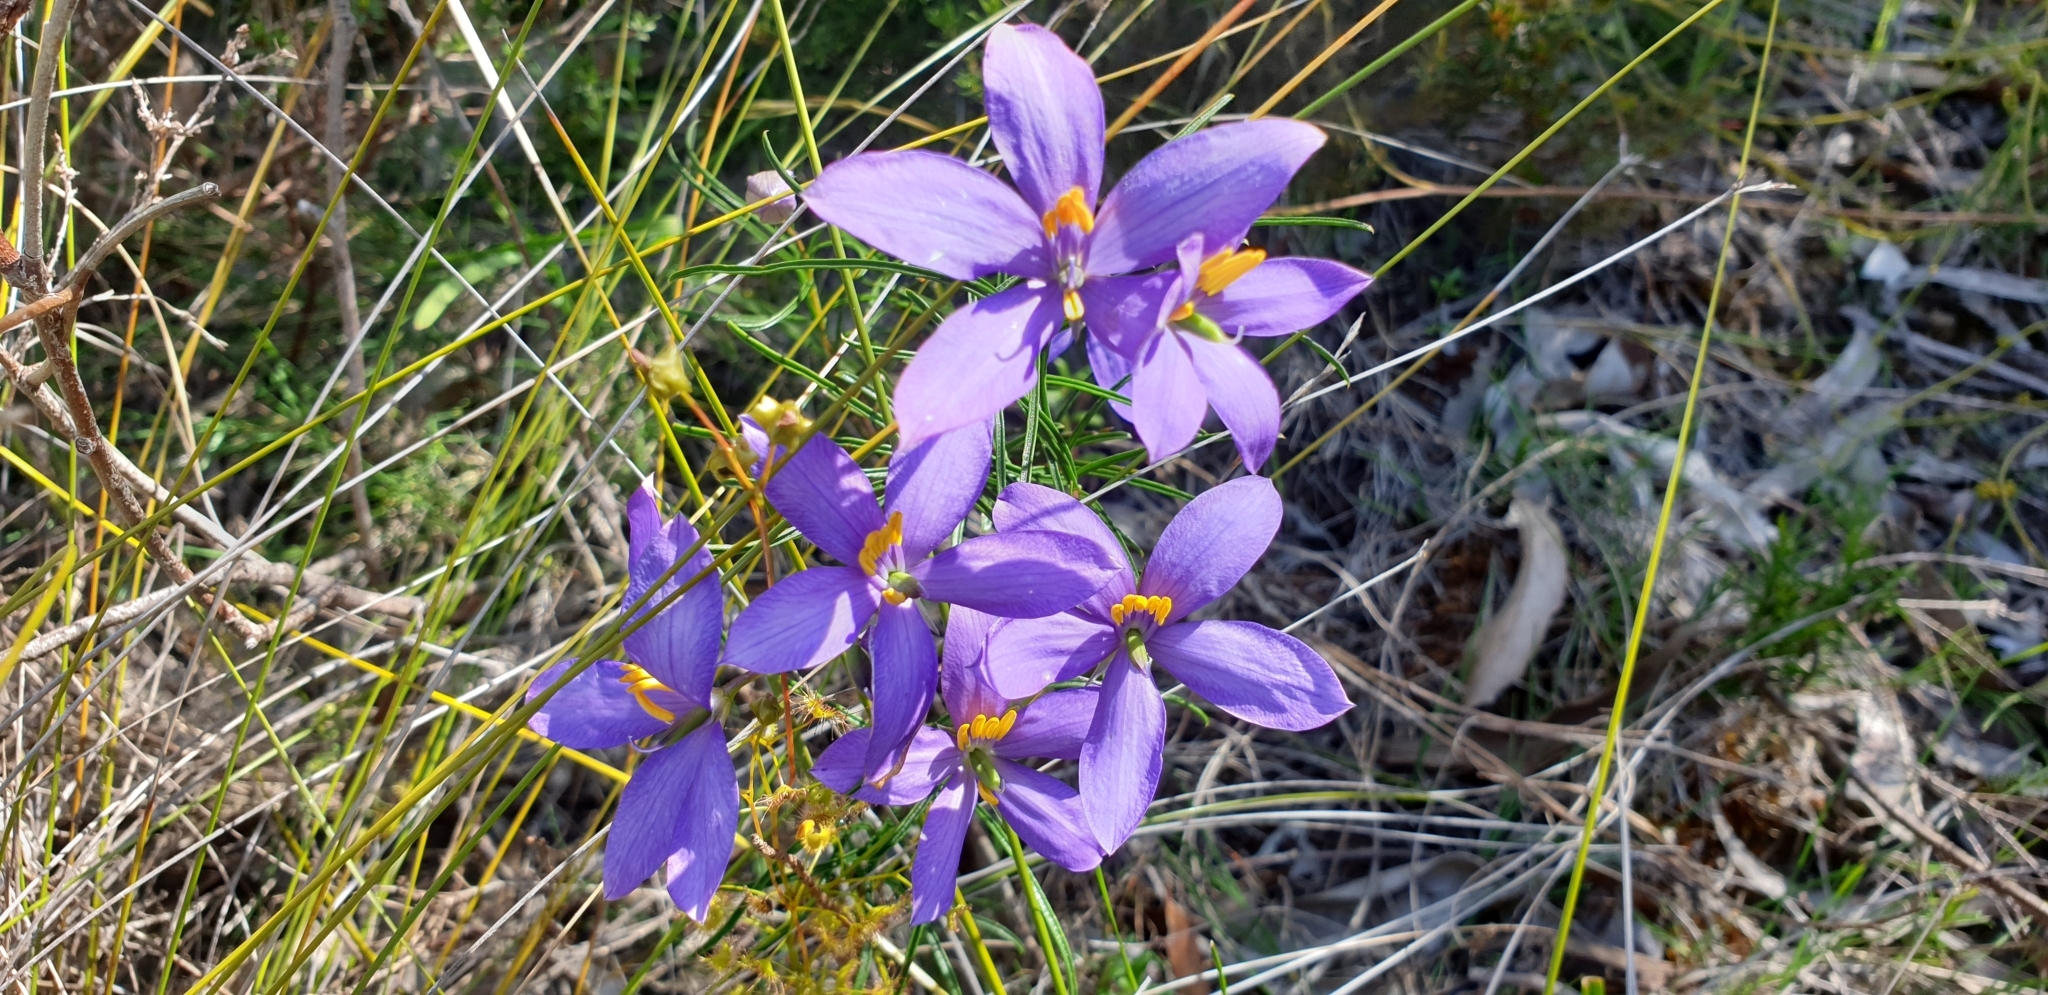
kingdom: Plantae
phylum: Tracheophyta
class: Magnoliopsida
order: Apiales
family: Pittosporaceae
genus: Cheiranthera
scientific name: Cheiranthera alternifolia
